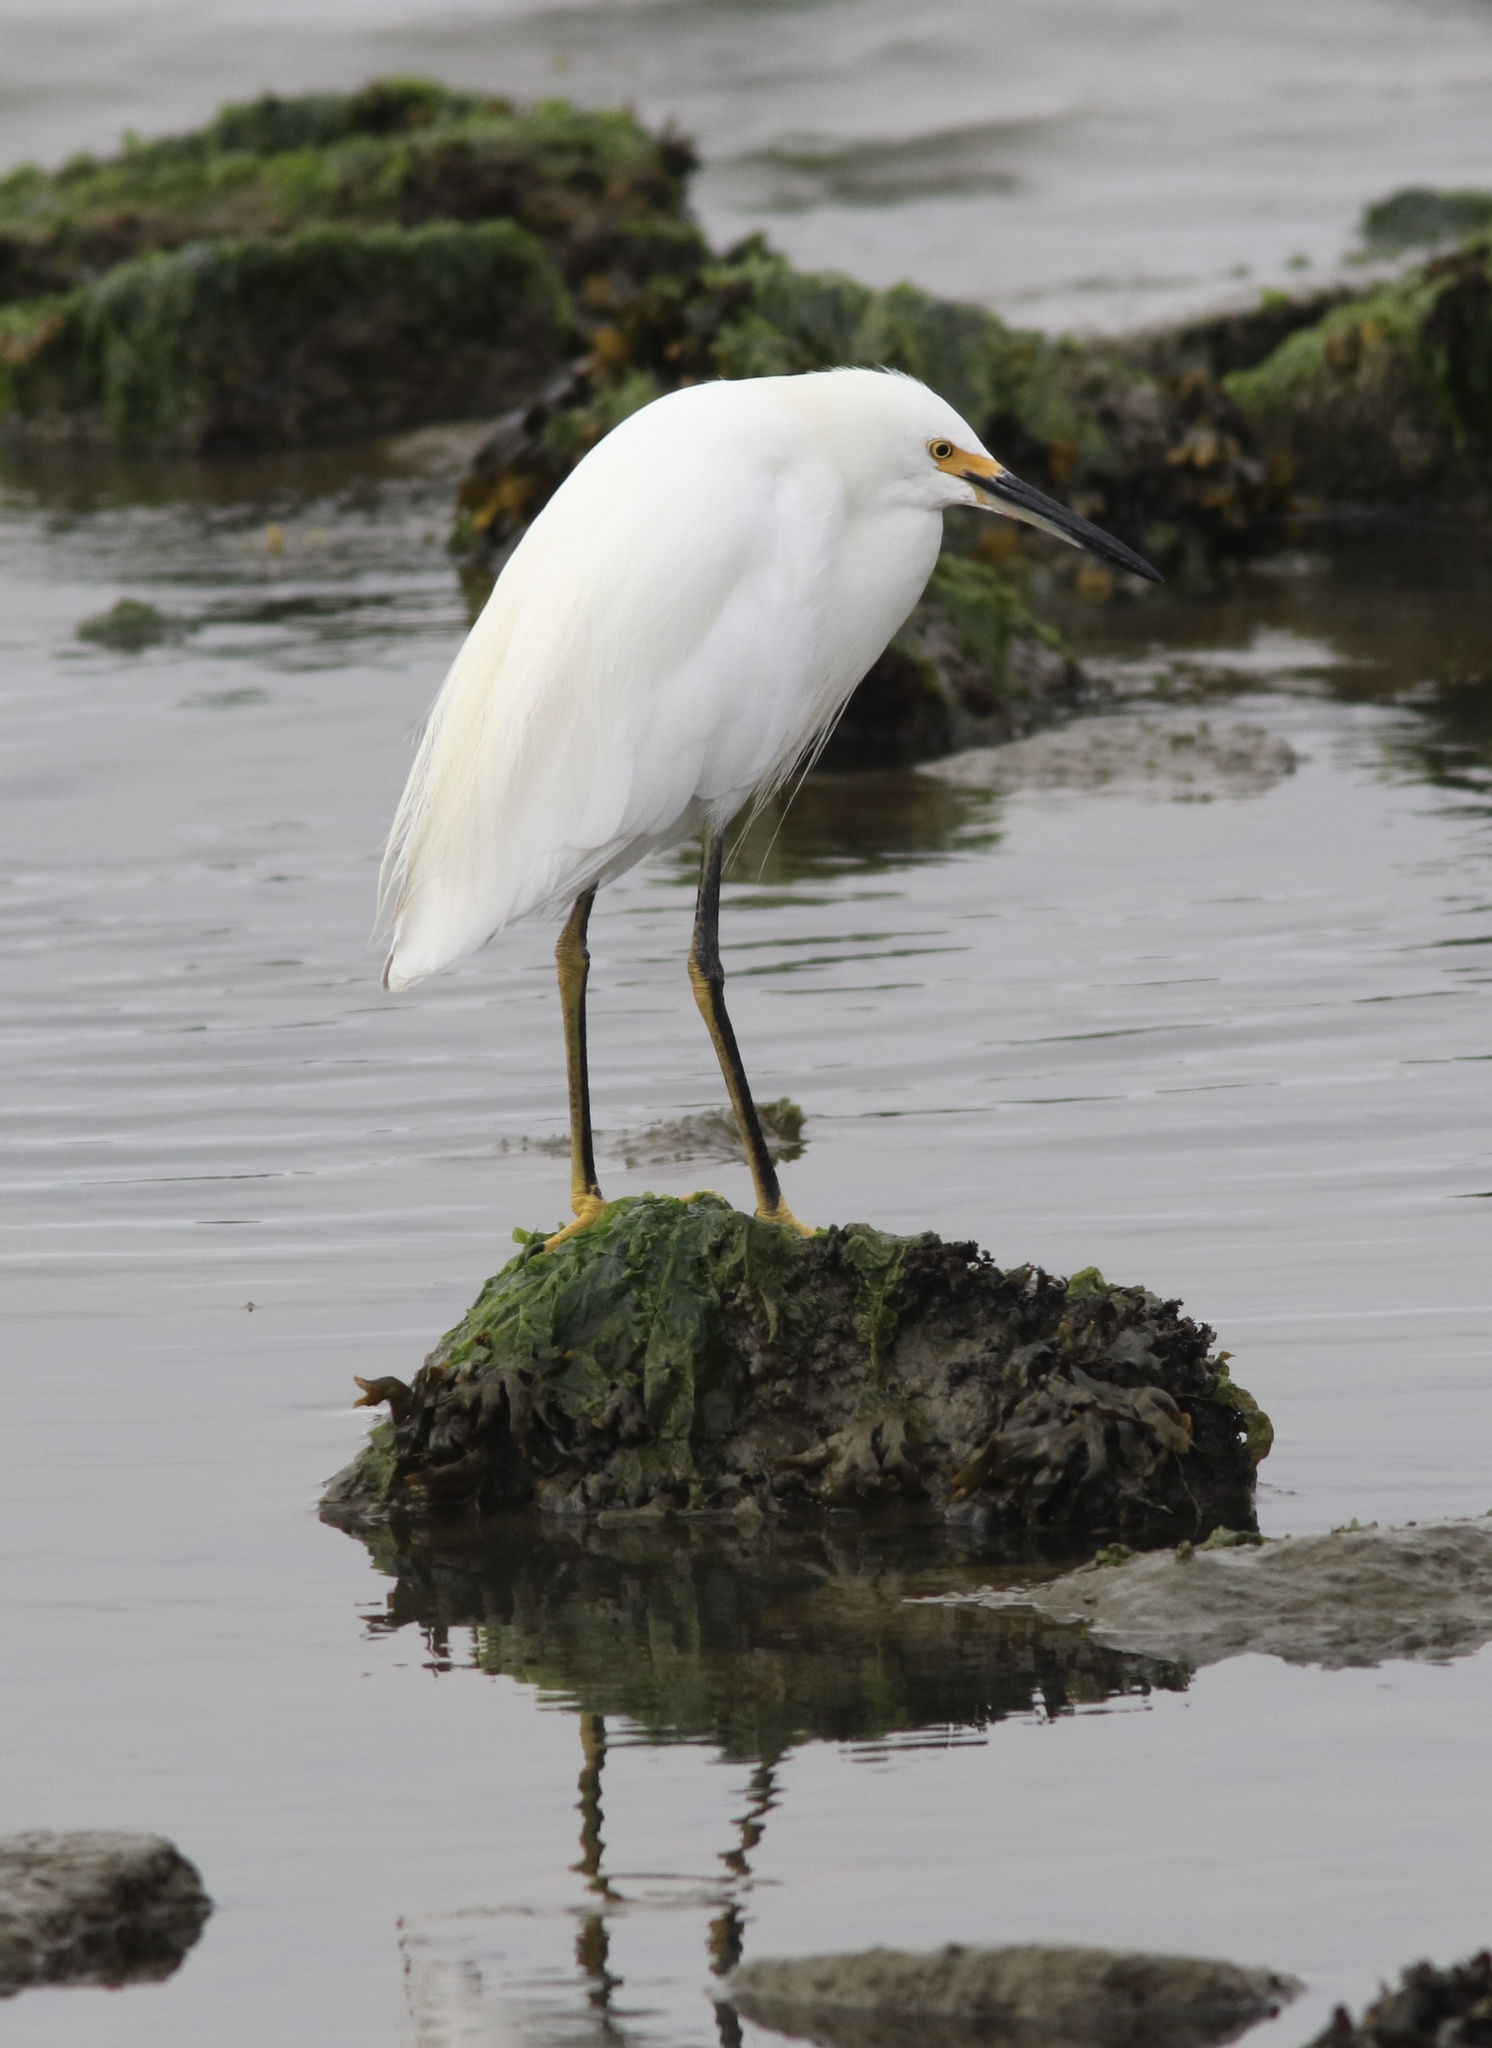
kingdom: Animalia
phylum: Chordata
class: Aves
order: Pelecaniformes
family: Ardeidae
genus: Egretta
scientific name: Egretta thula
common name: Snowy egret
